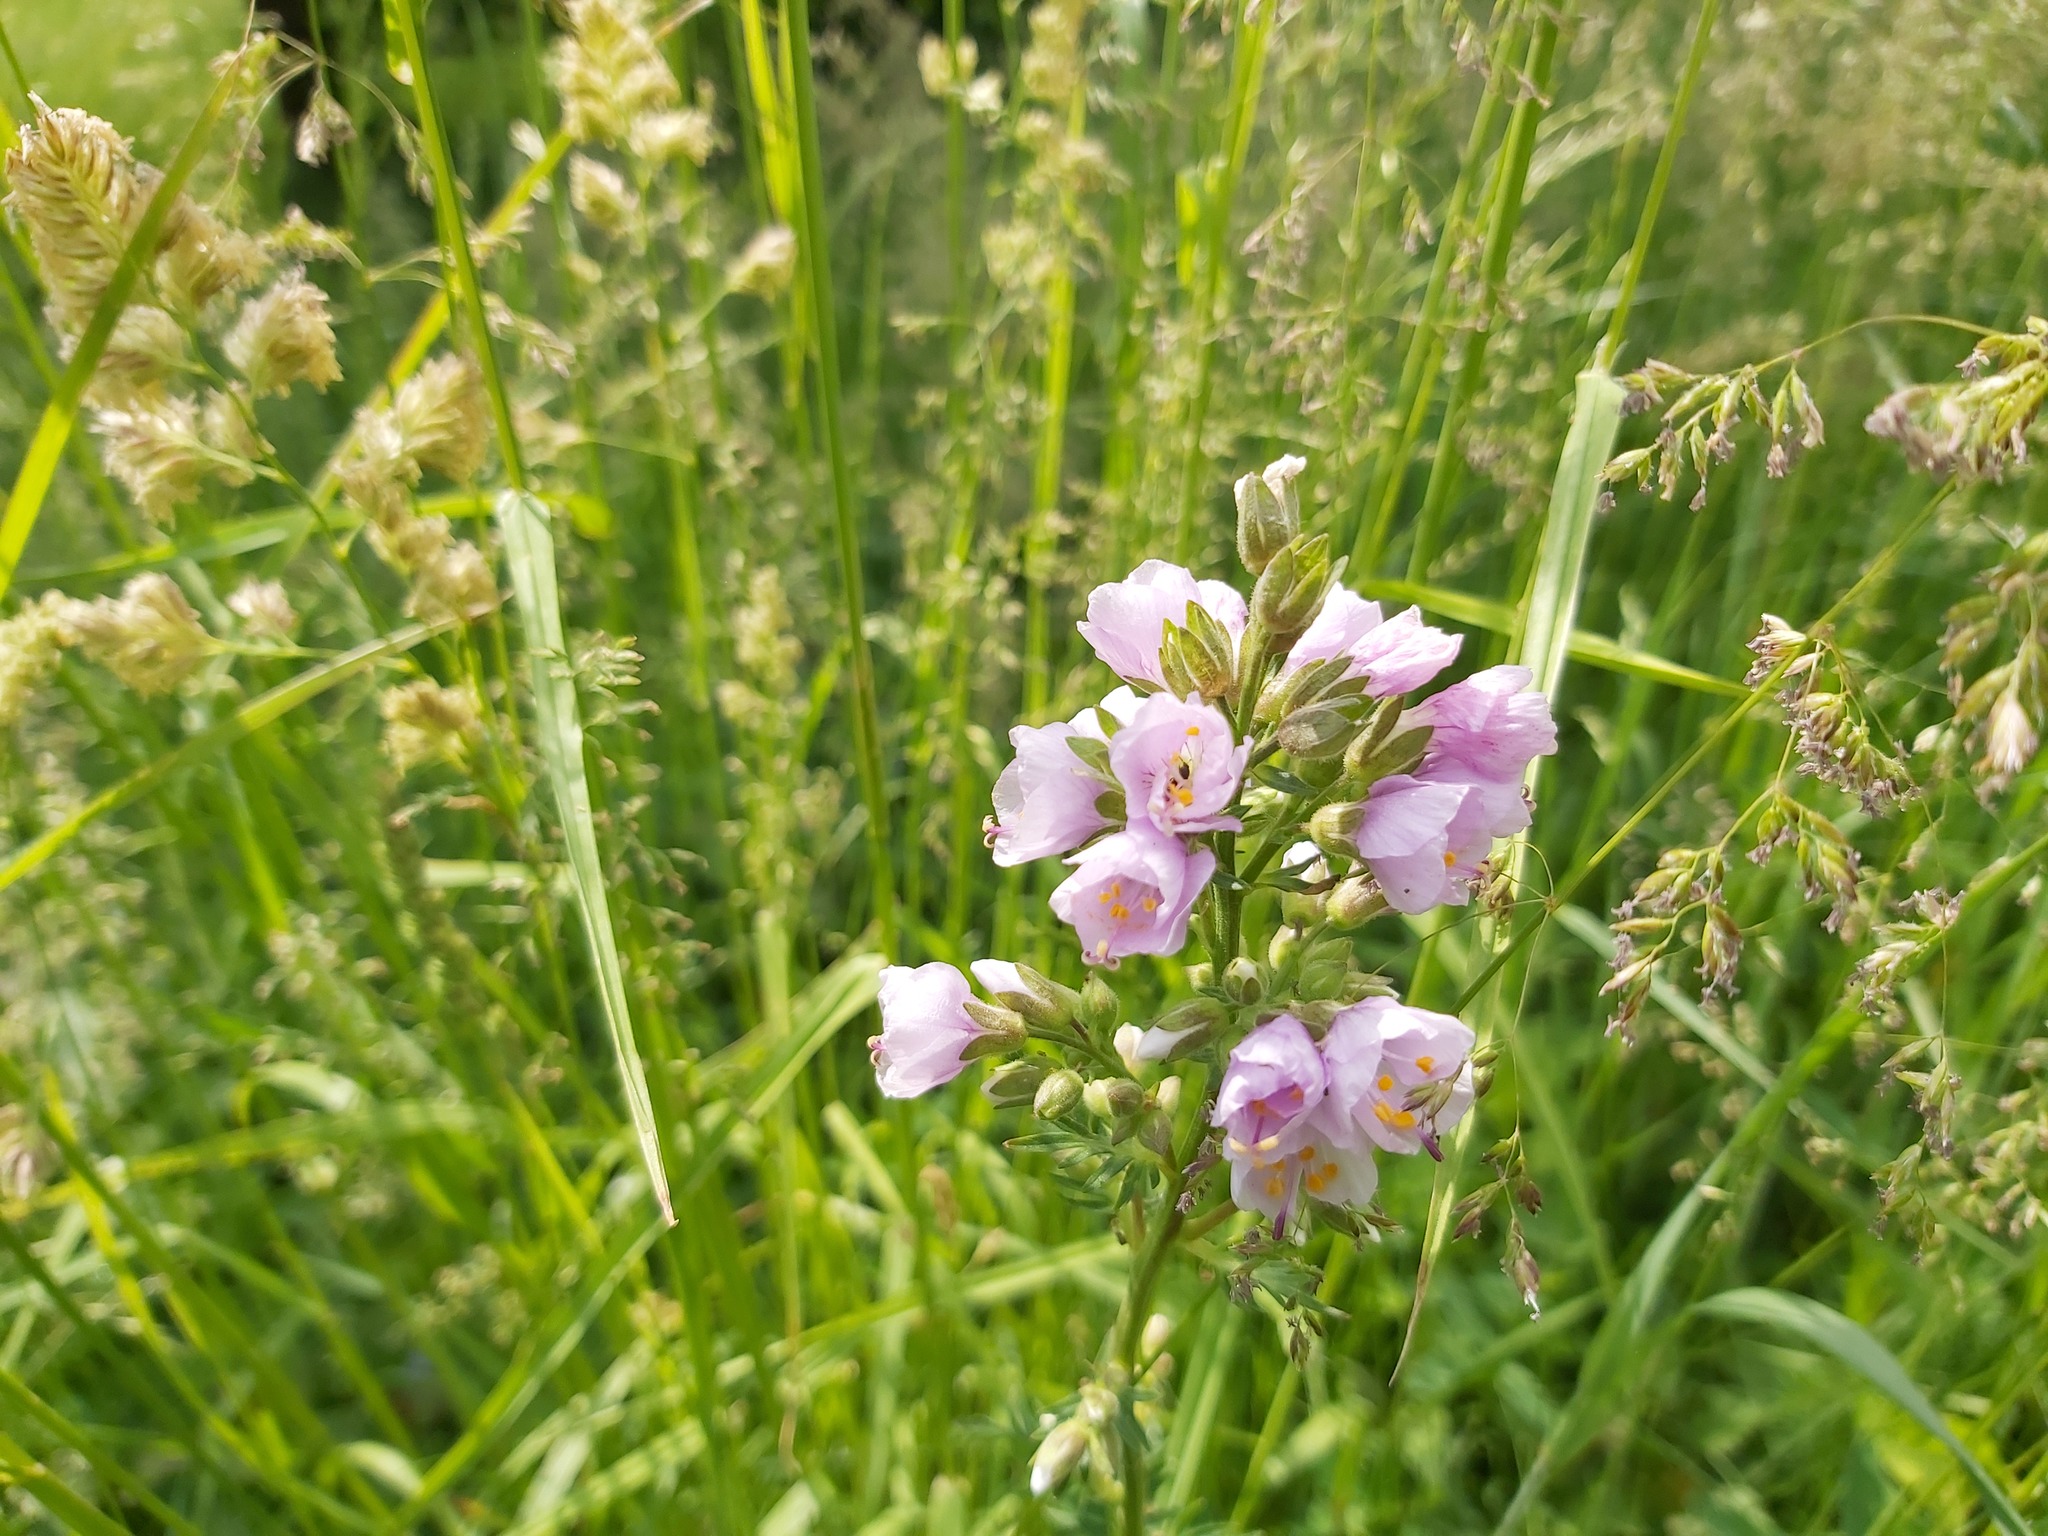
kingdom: Plantae
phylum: Tracheophyta
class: Magnoliopsida
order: Ericales
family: Polemoniaceae
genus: Polemonium
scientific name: Polemonium caeruleum
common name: Jacob's-ladder
